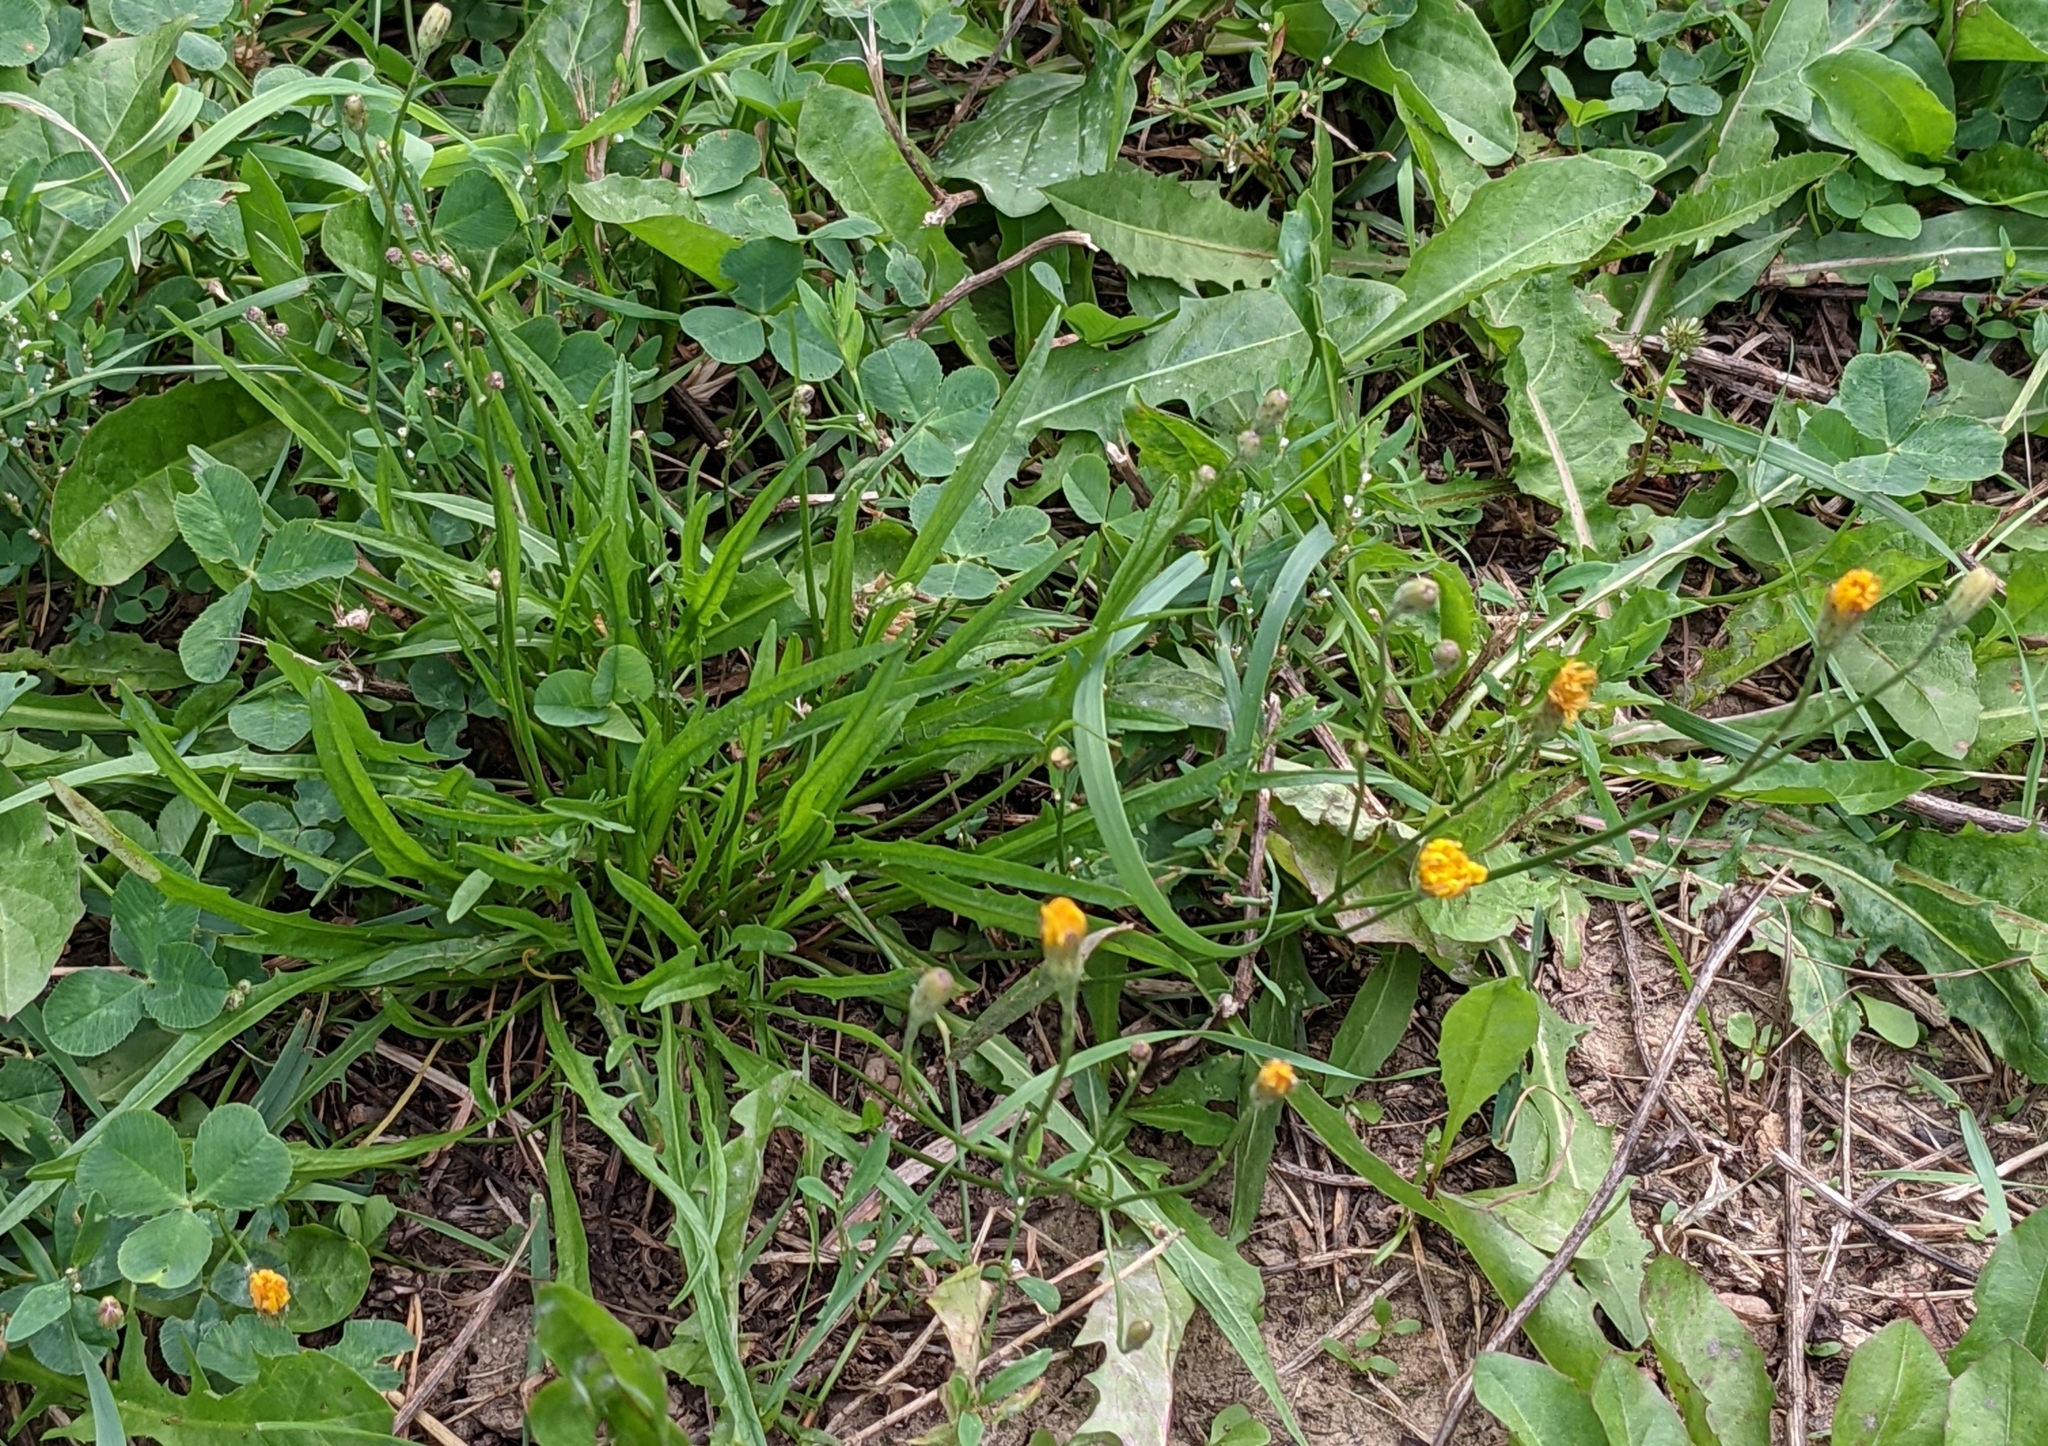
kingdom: Plantae
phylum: Tracheophyta
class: Magnoliopsida
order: Asterales
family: Asteraceae
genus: Scorzoneroides
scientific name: Scorzoneroides autumnalis
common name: Autumn hawkbit
